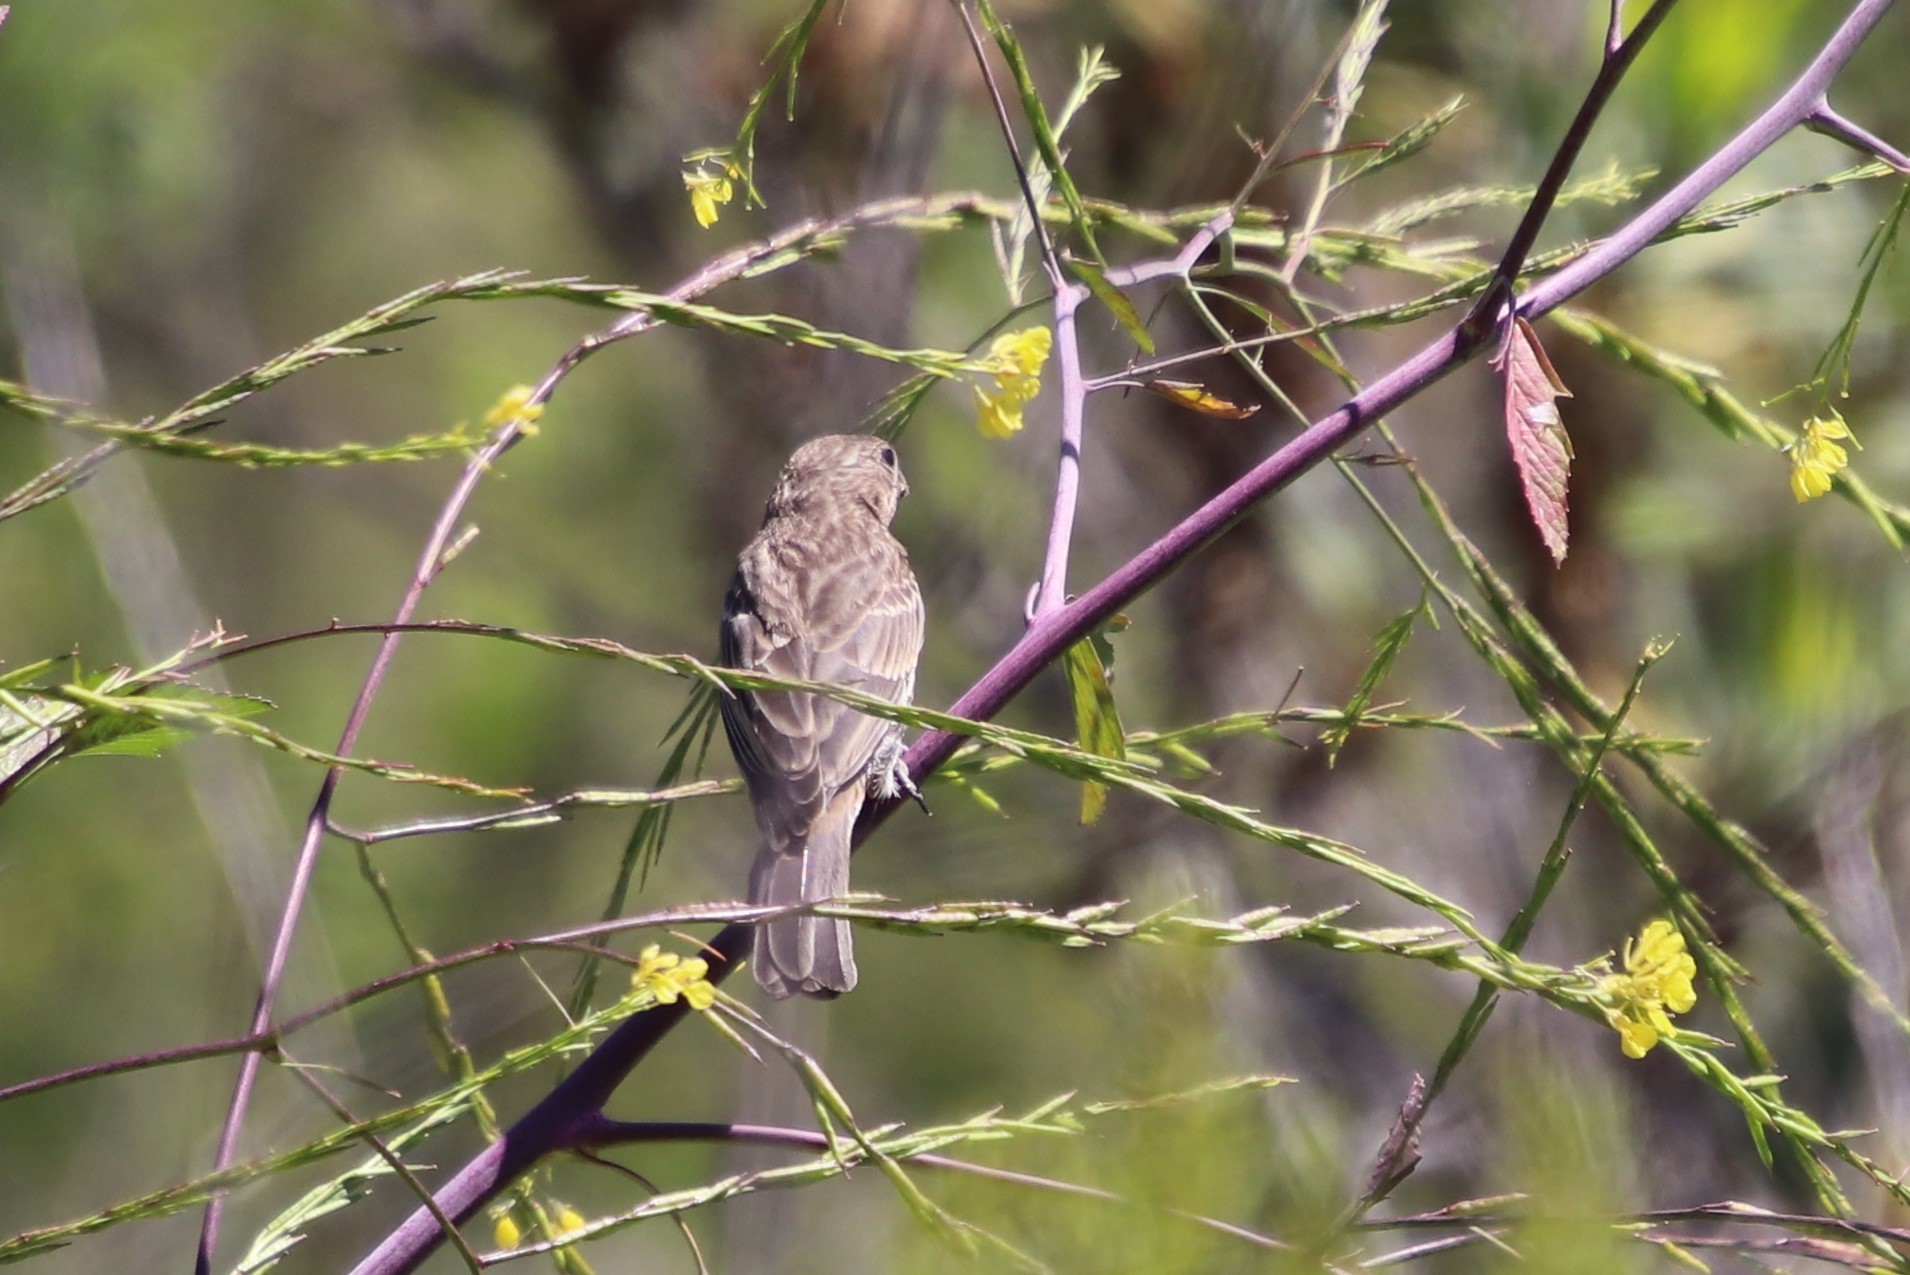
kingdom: Animalia
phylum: Chordata
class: Aves
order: Passeriformes
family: Fringillidae
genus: Haemorhous
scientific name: Haemorhous mexicanus
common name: House finch
